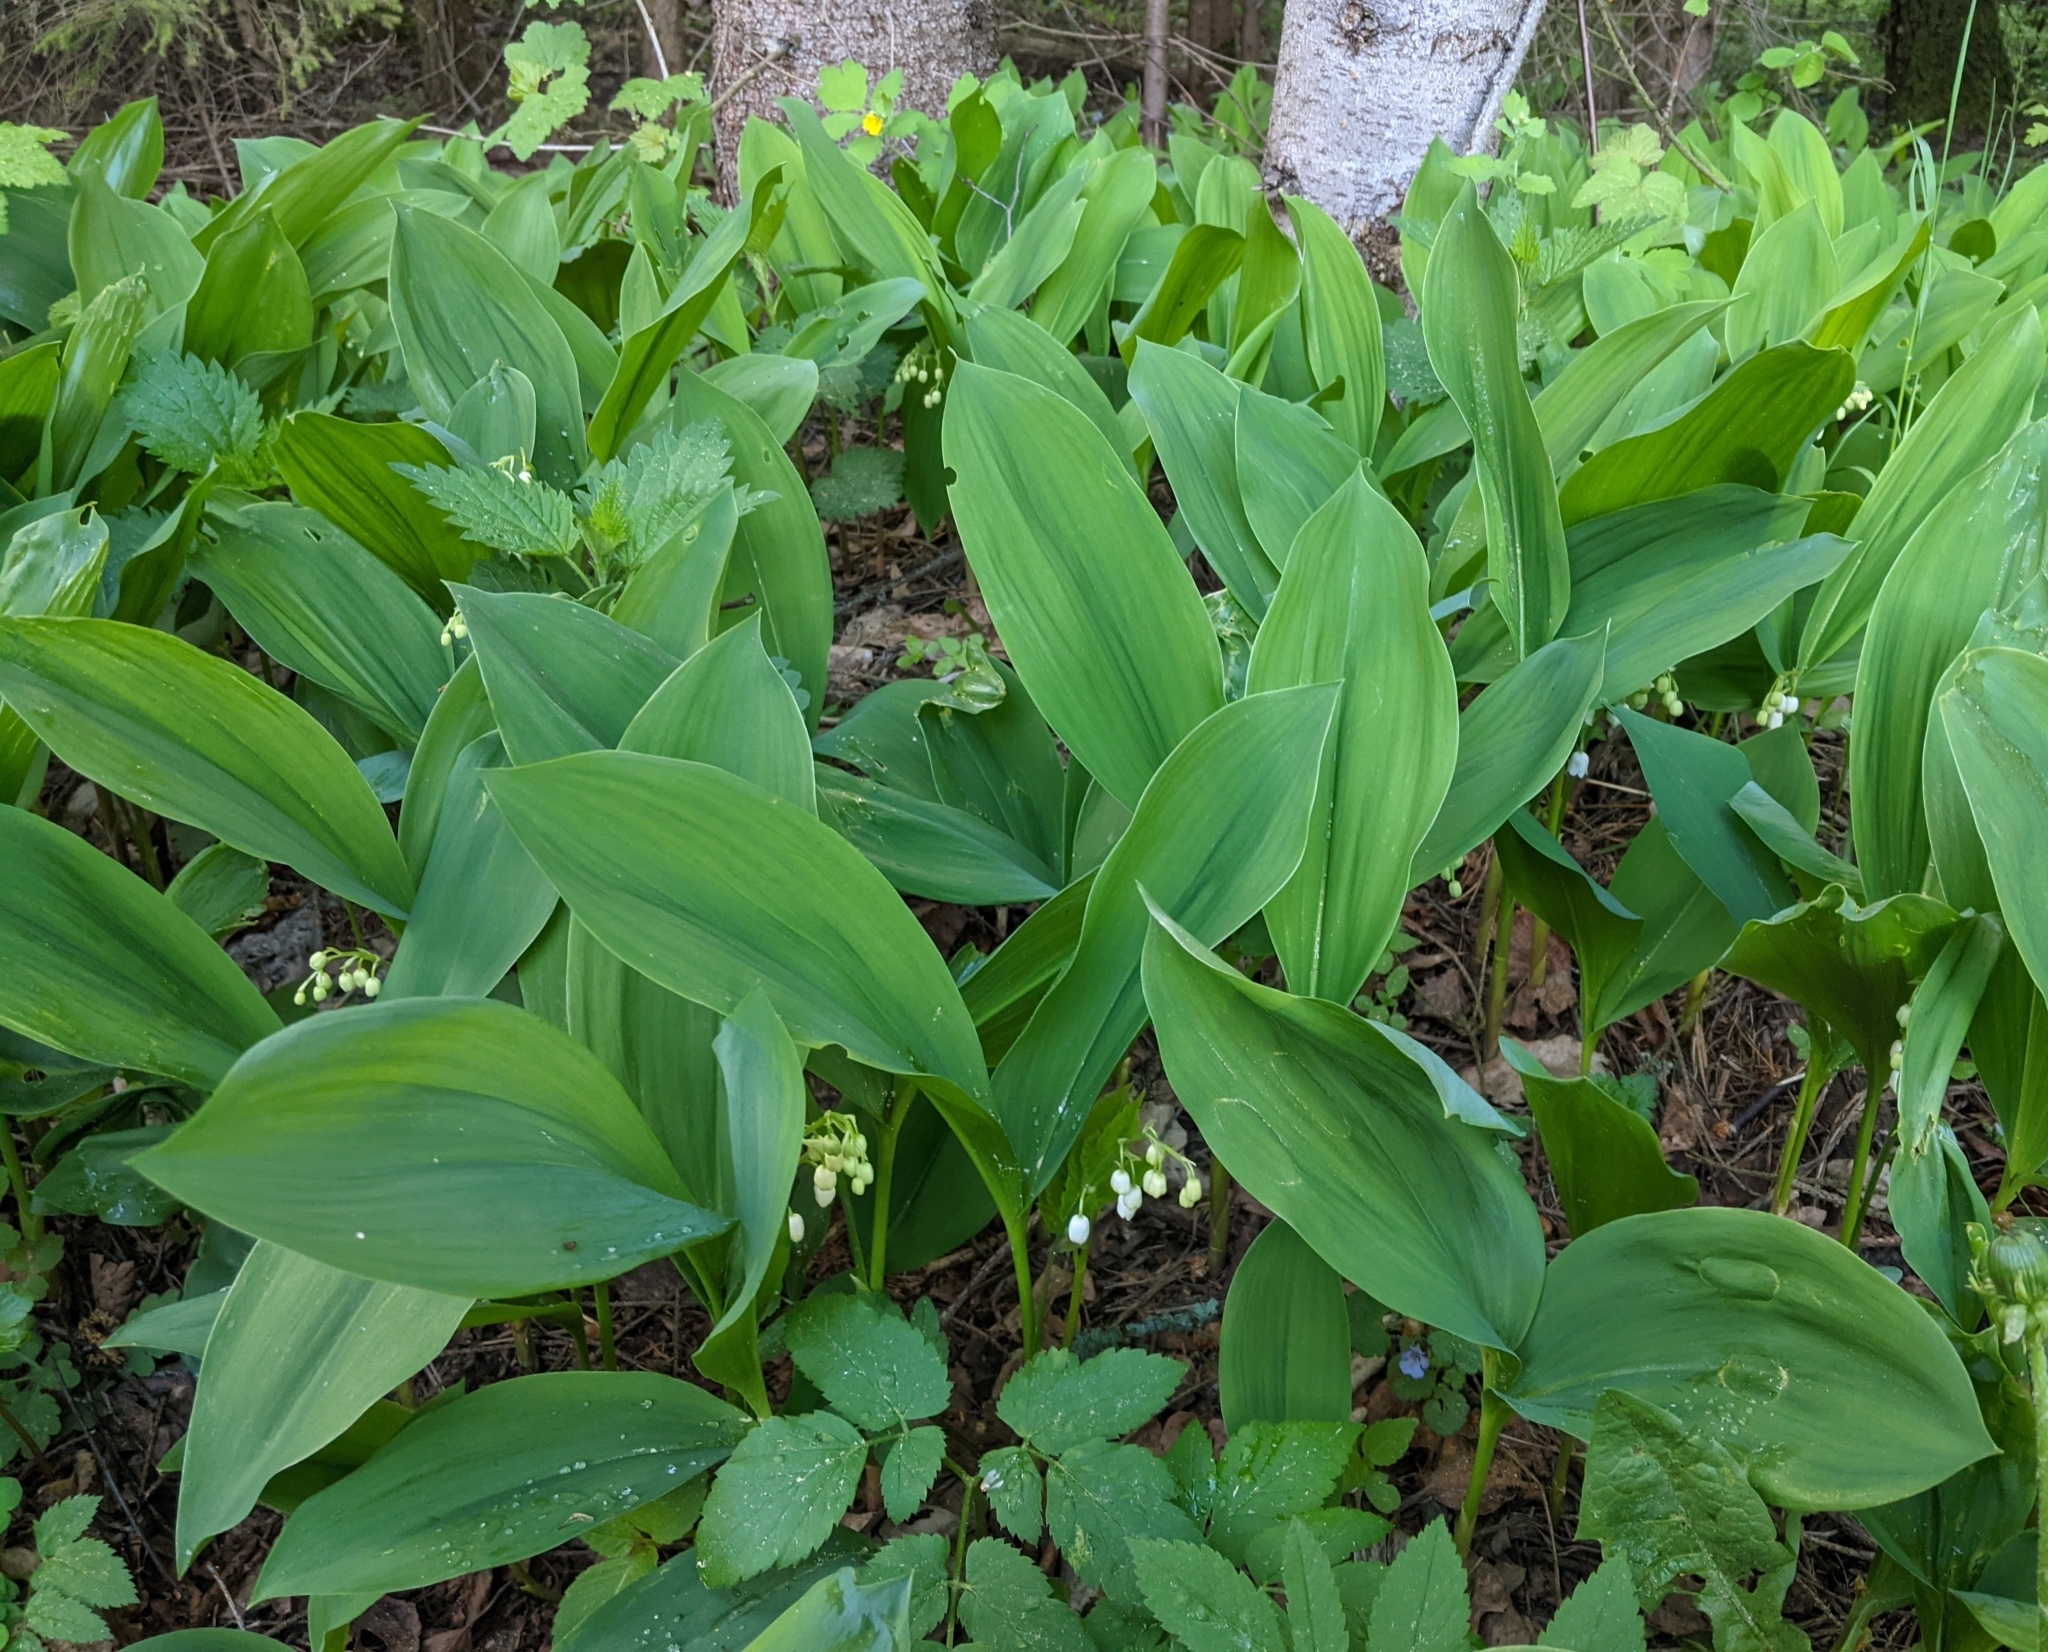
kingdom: Plantae
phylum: Tracheophyta
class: Liliopsida
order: Asparagales
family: Asparagaceae
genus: Convallaria
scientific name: Convallaria majalis
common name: Lily-of-the-valley
